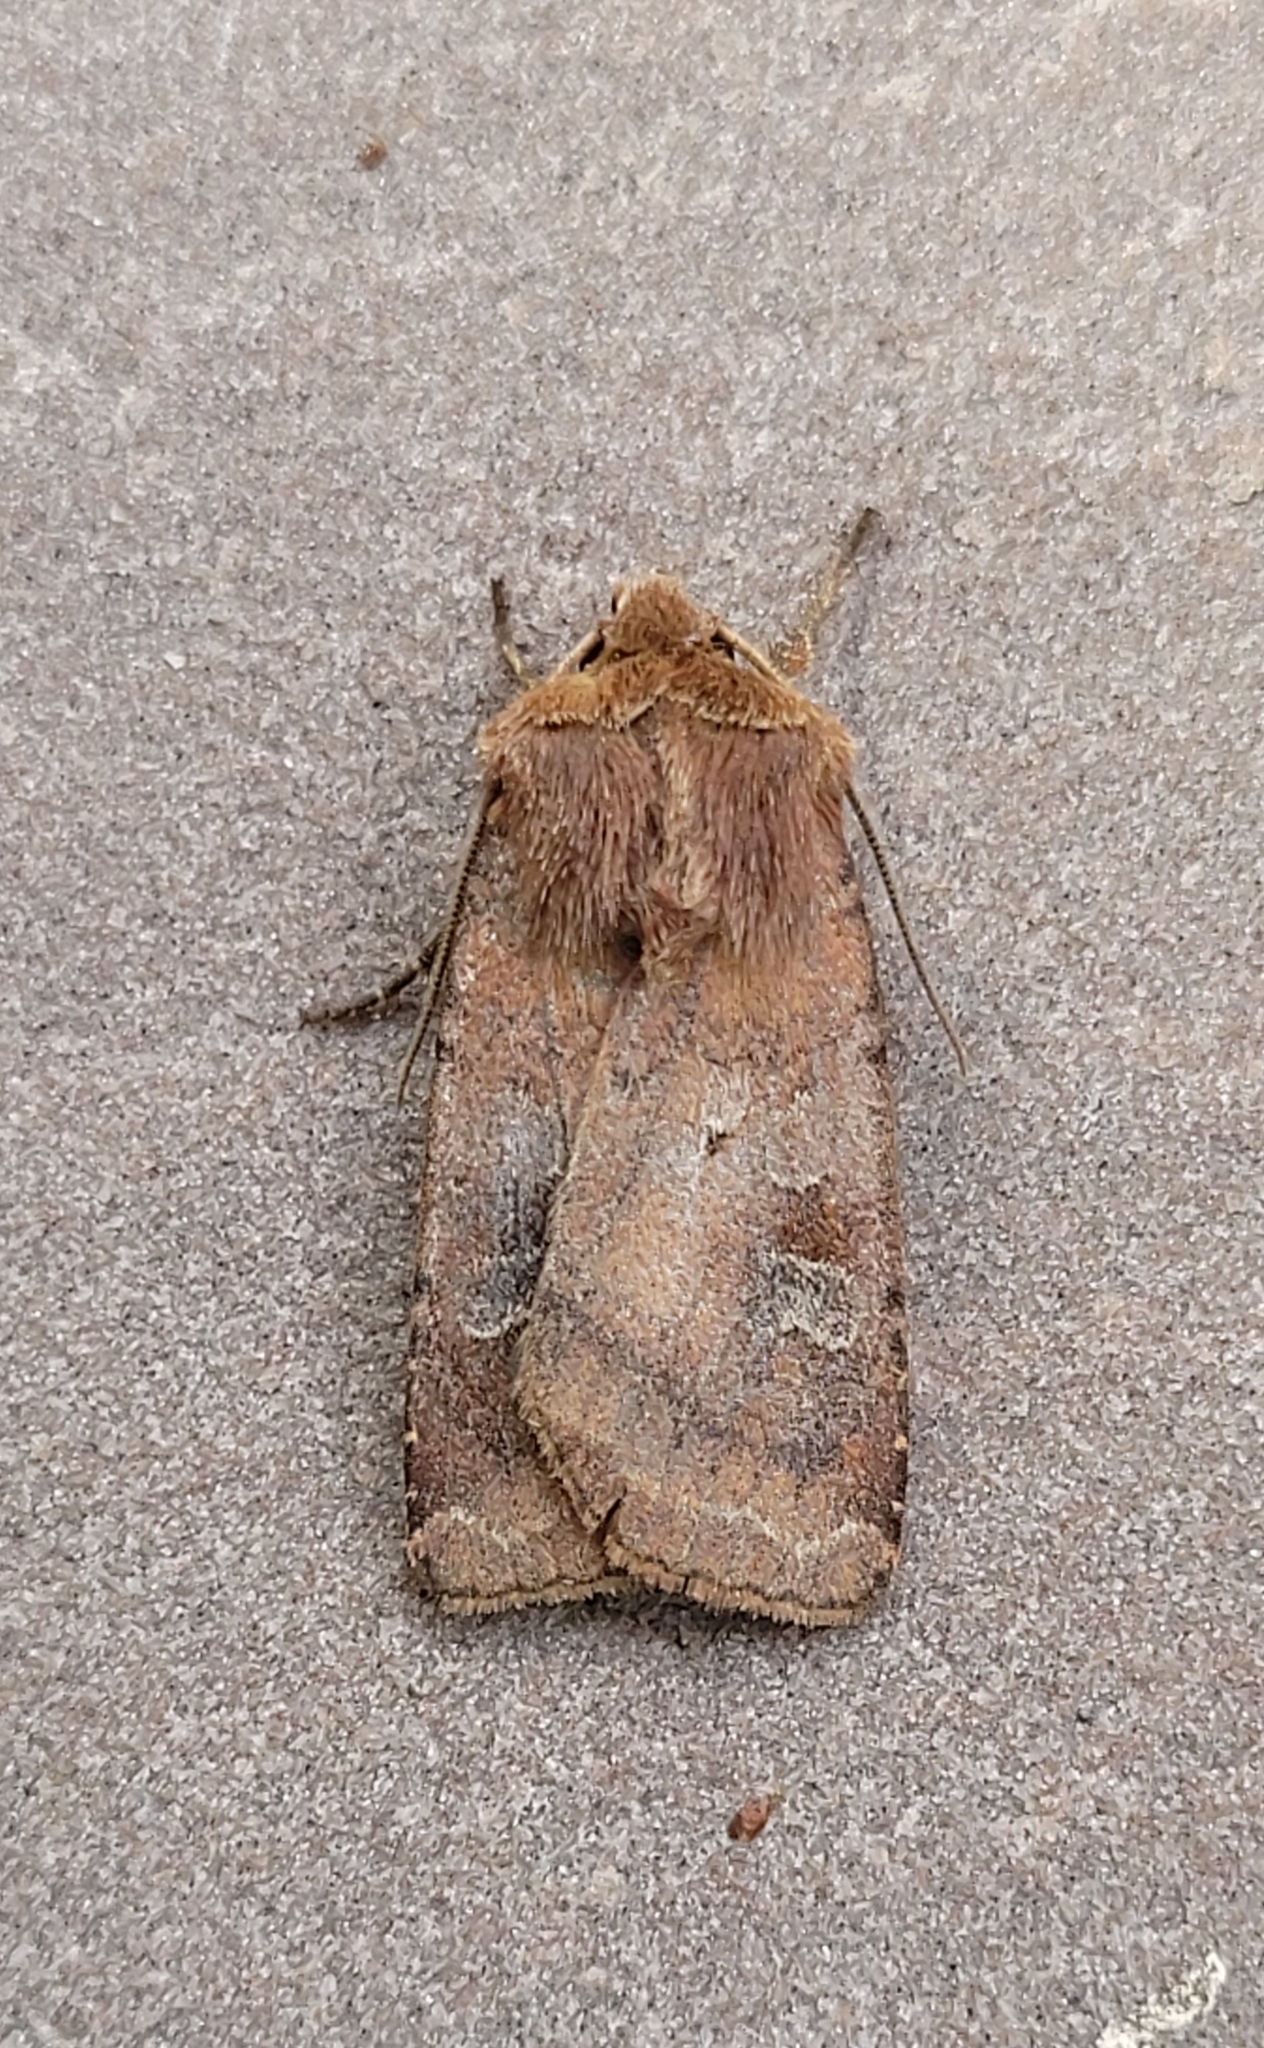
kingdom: Animalia
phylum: Arthropoda
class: Insecta
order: Lepidoptera
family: Noctuidae
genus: Diarsia
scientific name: Diarsia rubi
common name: Small square-spot
